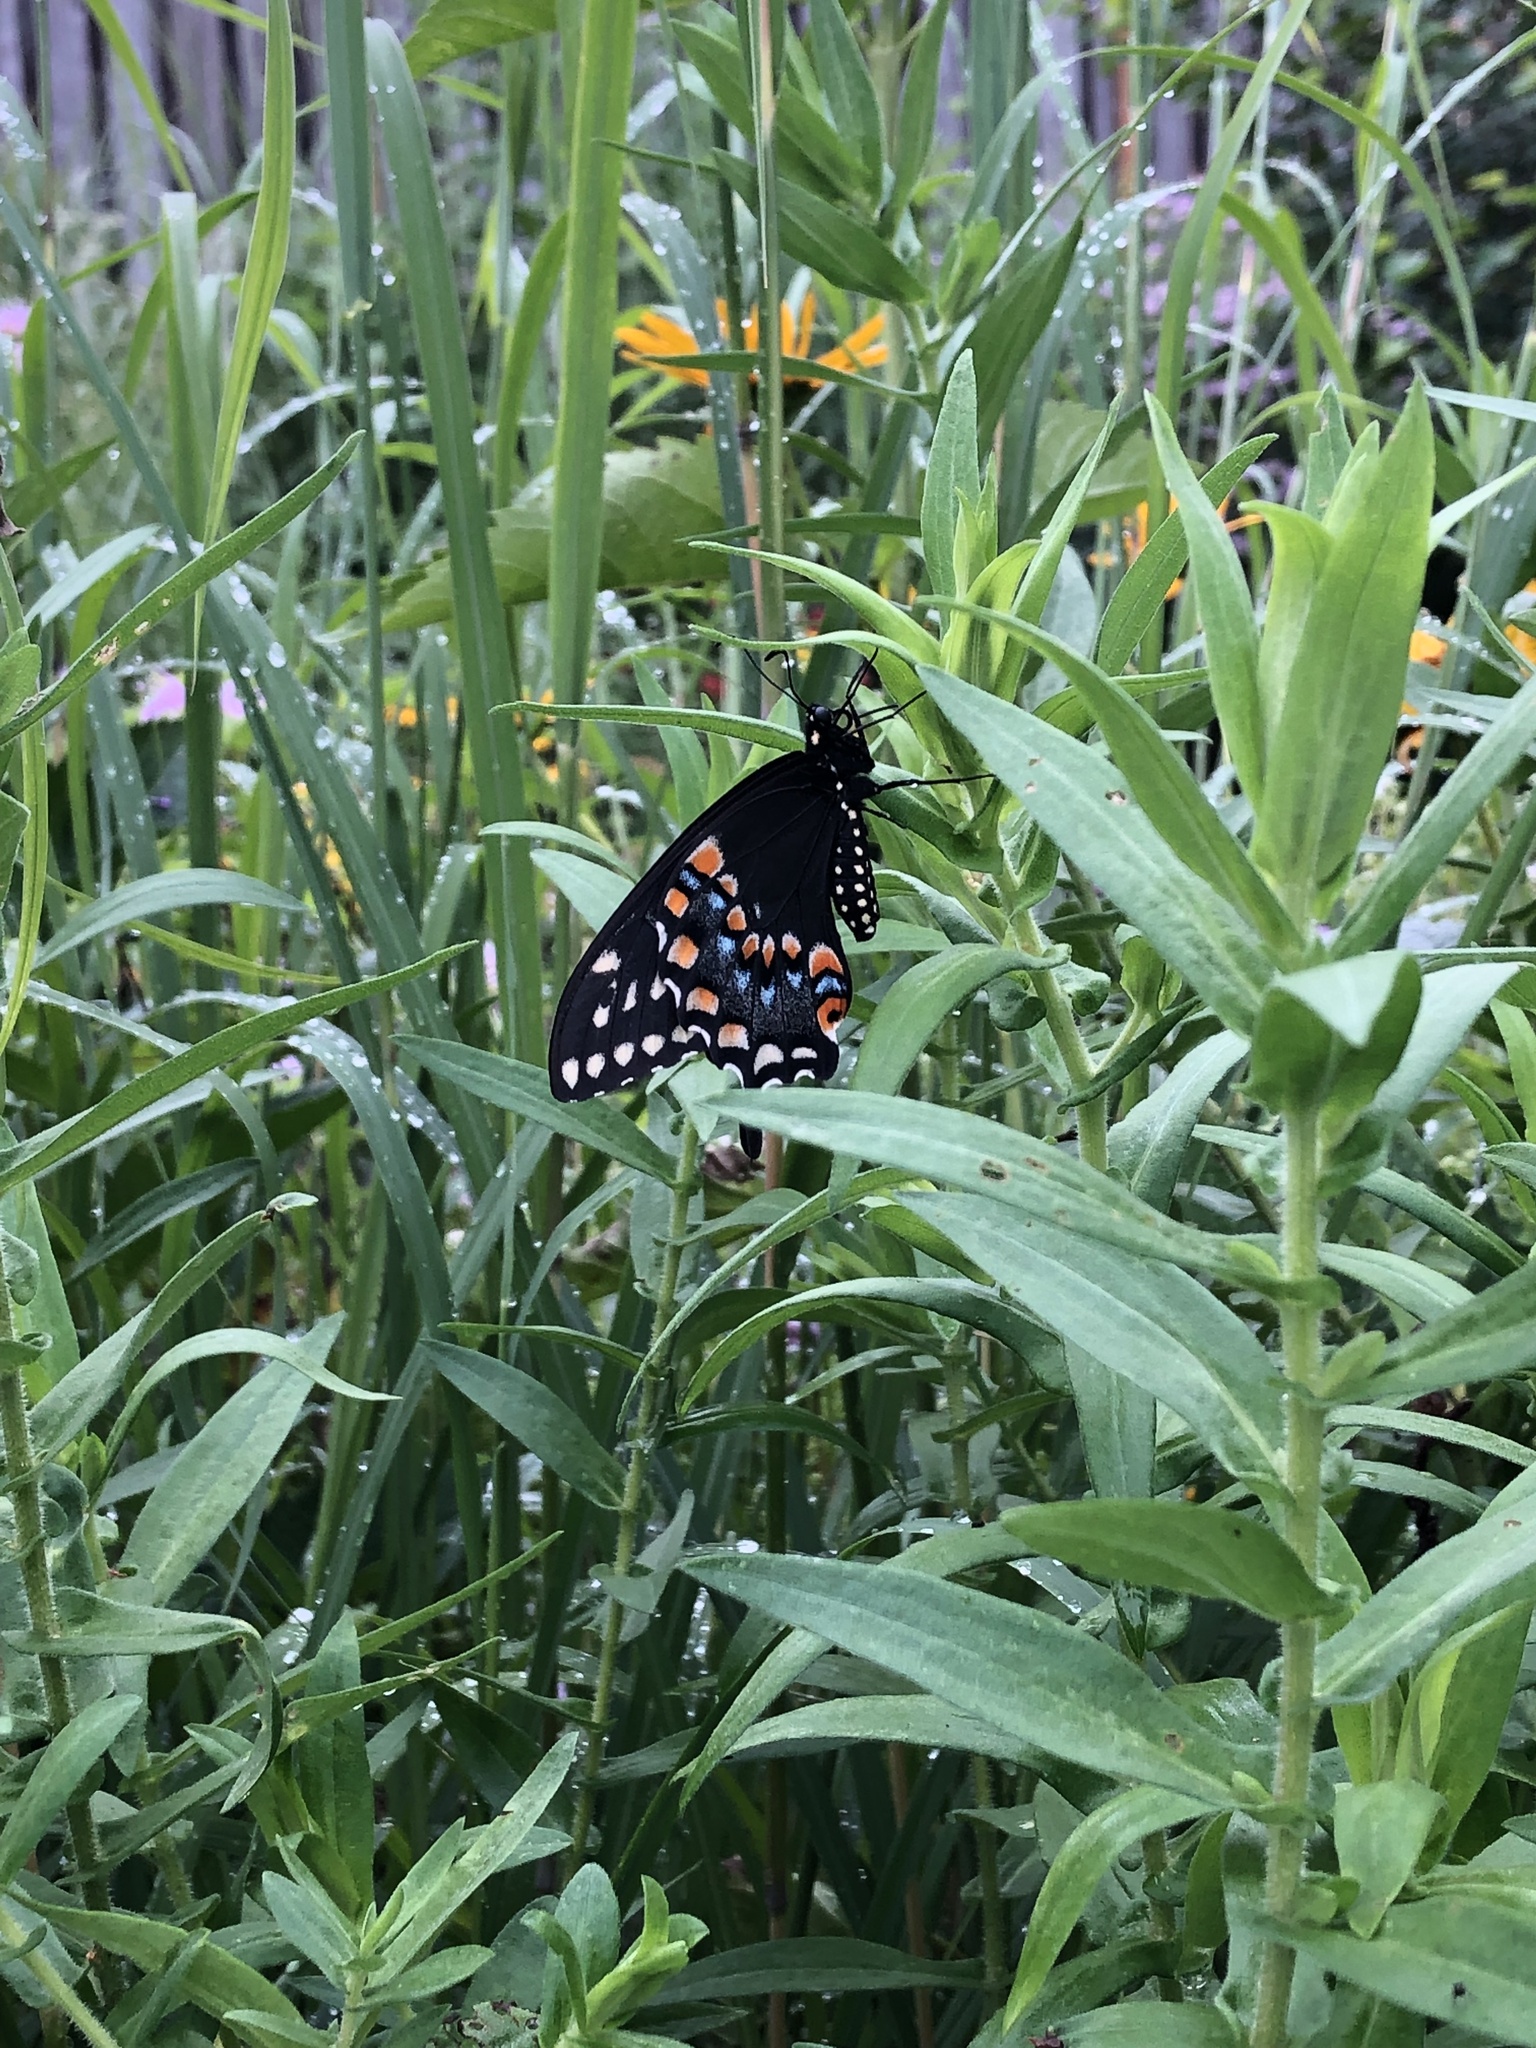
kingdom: Animalia
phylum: Arthropoda
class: Insecta
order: Lepidoptera
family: Papilionidae
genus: Papilio
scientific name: Papilio polyxenes
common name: Black swallowtail
